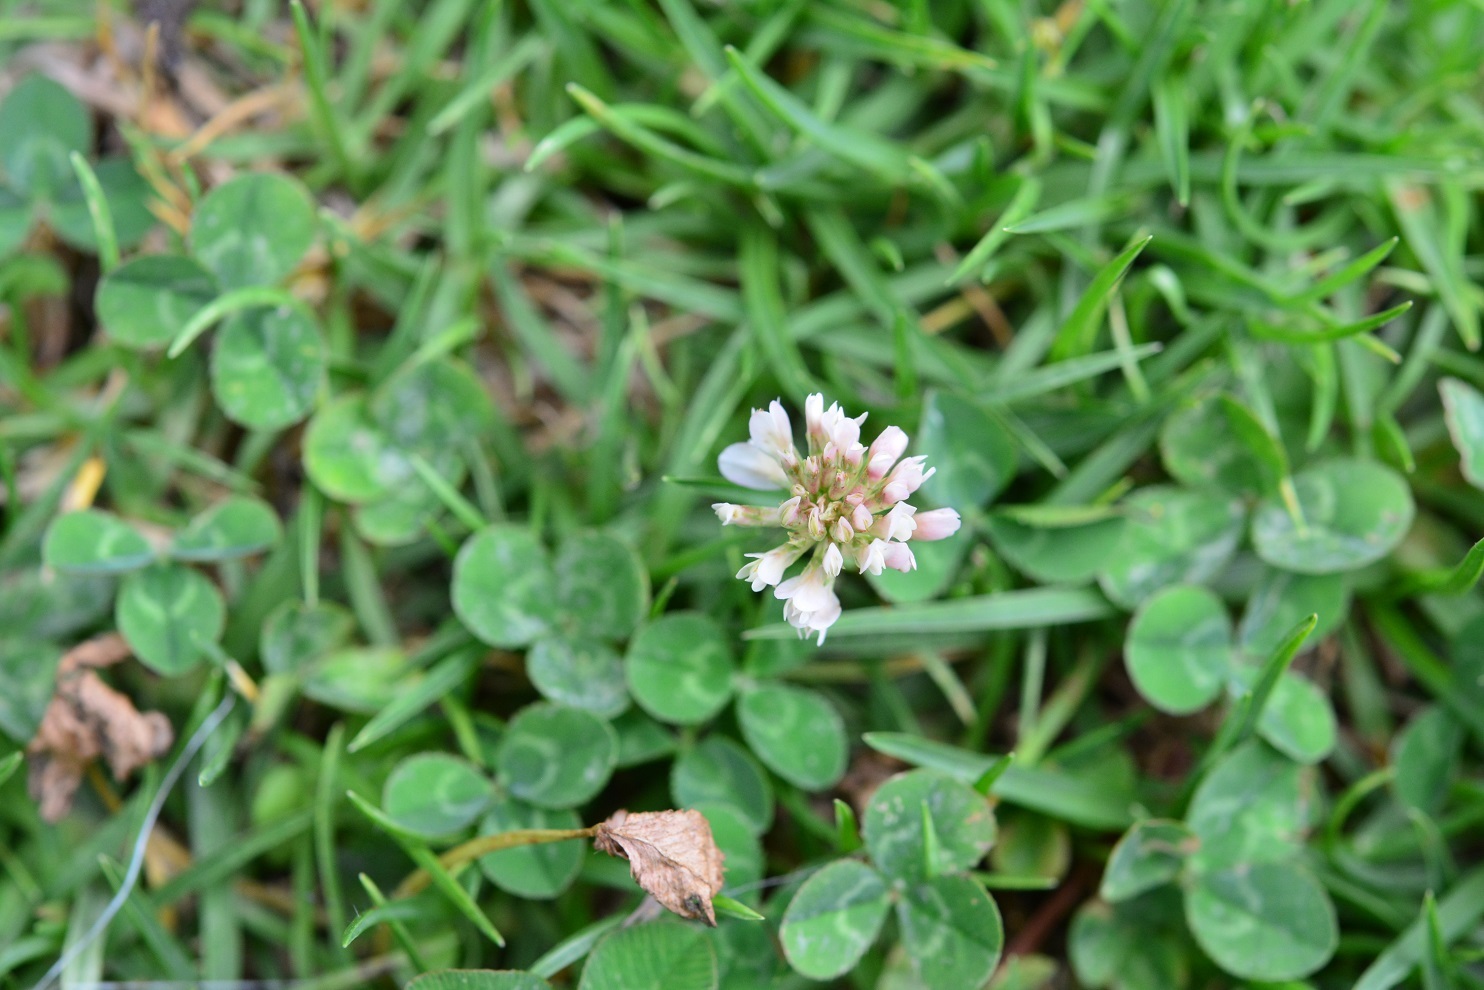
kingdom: Plantae
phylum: Tracheophyta
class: Magnoliopsida
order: Fabales
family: Fabaceae
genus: Trifolium
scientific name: Trifolium repens
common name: White clover
